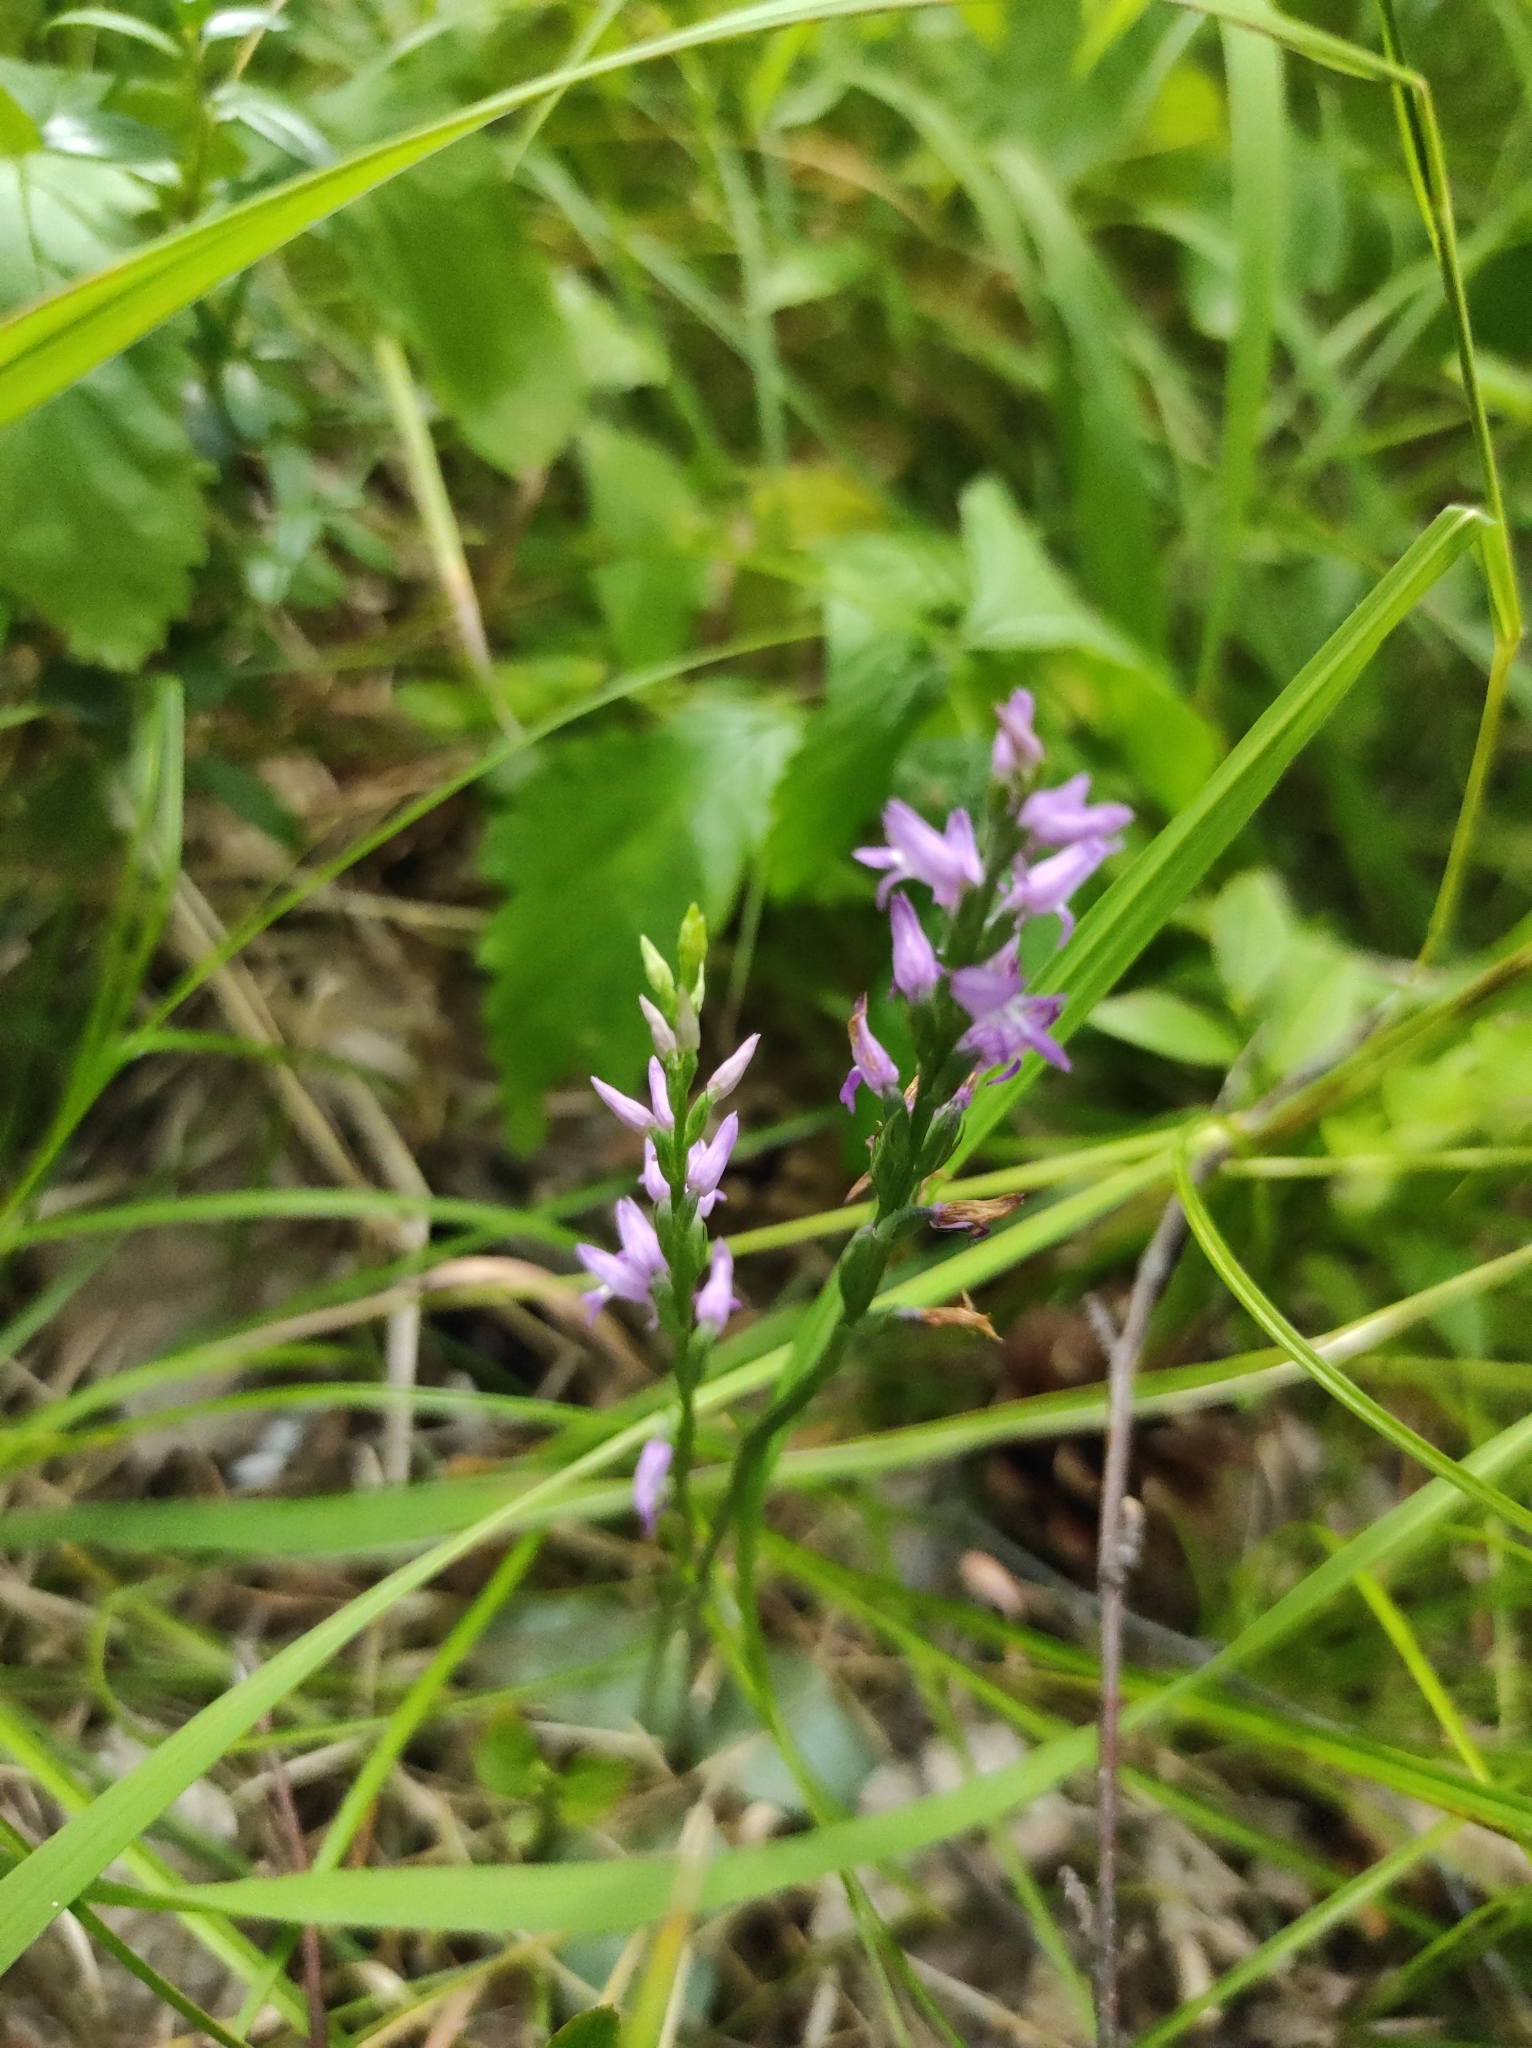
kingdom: Plantae
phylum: Tracheophyta
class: Liliopsida
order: Asparagales
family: Orchidaceae
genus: Hemipilia
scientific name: Hemipilia cucullata
